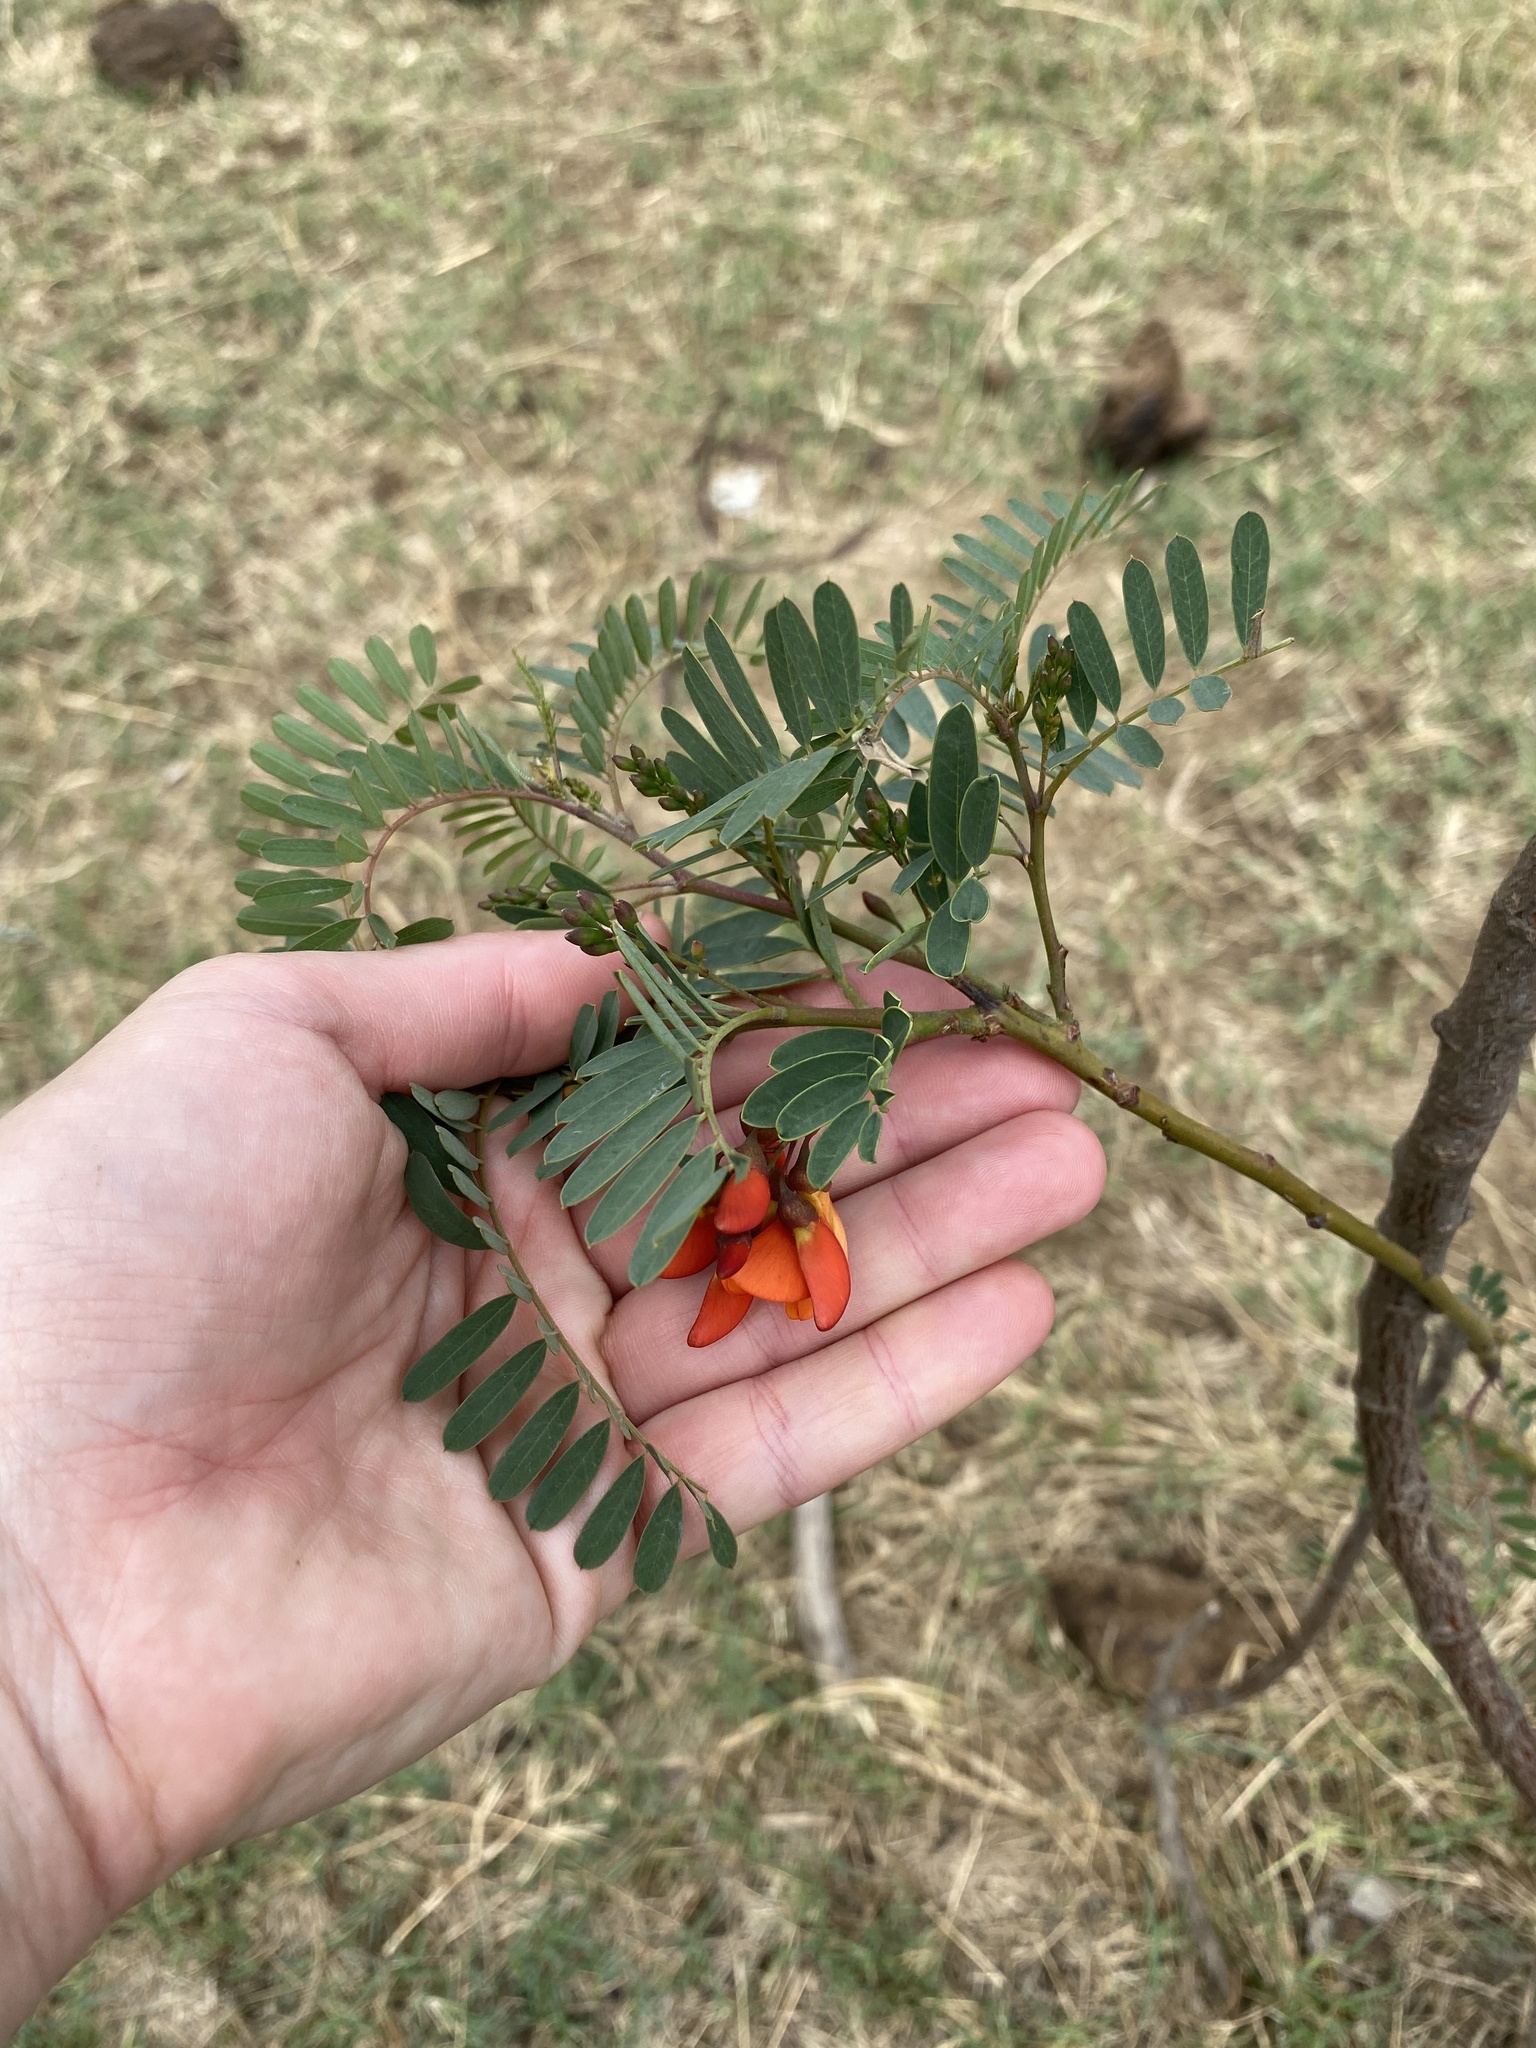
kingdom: Plantae
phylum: Tracheophyta
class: Magnoliopsida
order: Fabales
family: Fabaceae
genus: Sesbania
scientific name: Sesbania punicea
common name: Rattlebox
